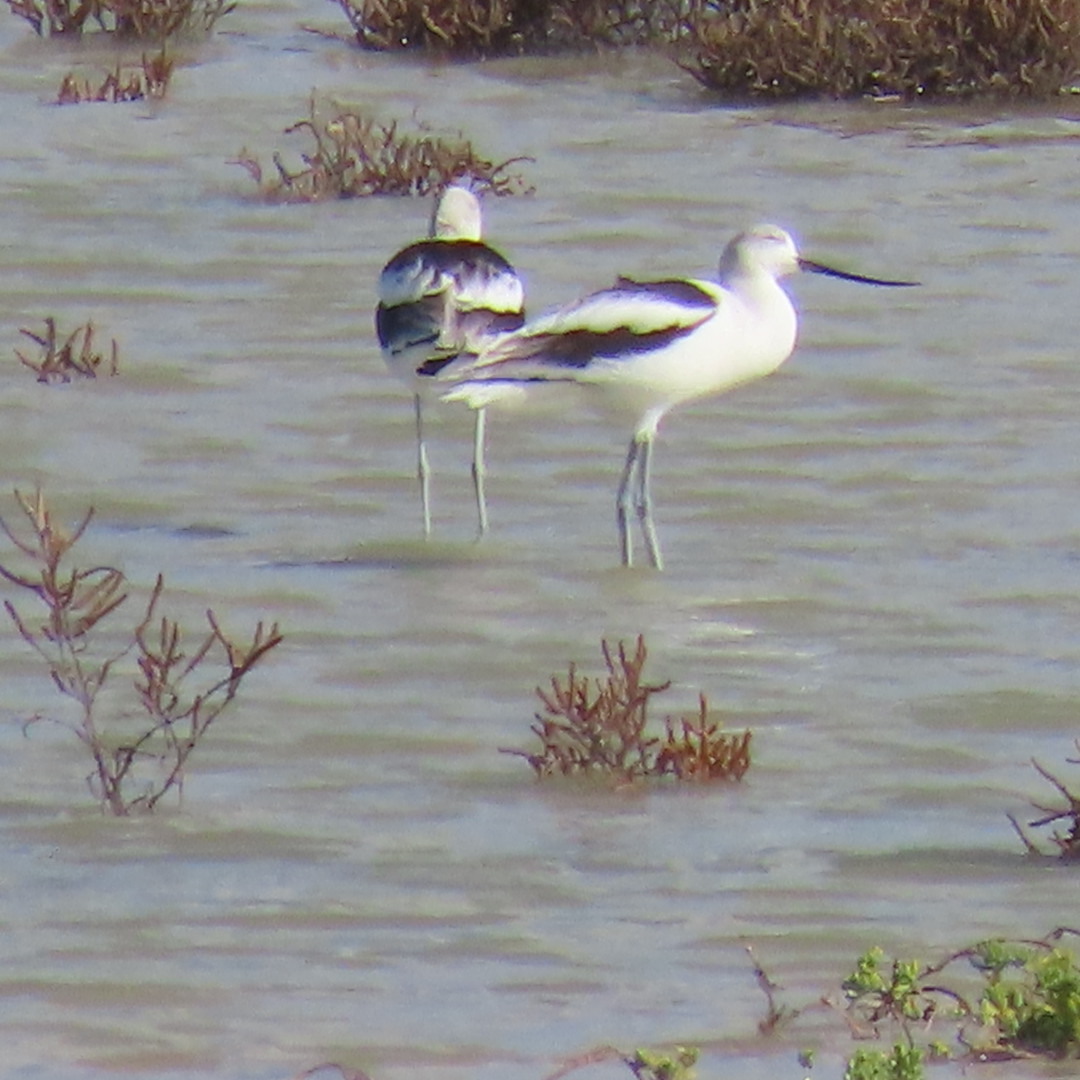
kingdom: Animalia
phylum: Chordata
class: Aves
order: Charadriiformes
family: Recurvirostridae
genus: Recurvirostra
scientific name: Recurvirostra americana
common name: American avocet
